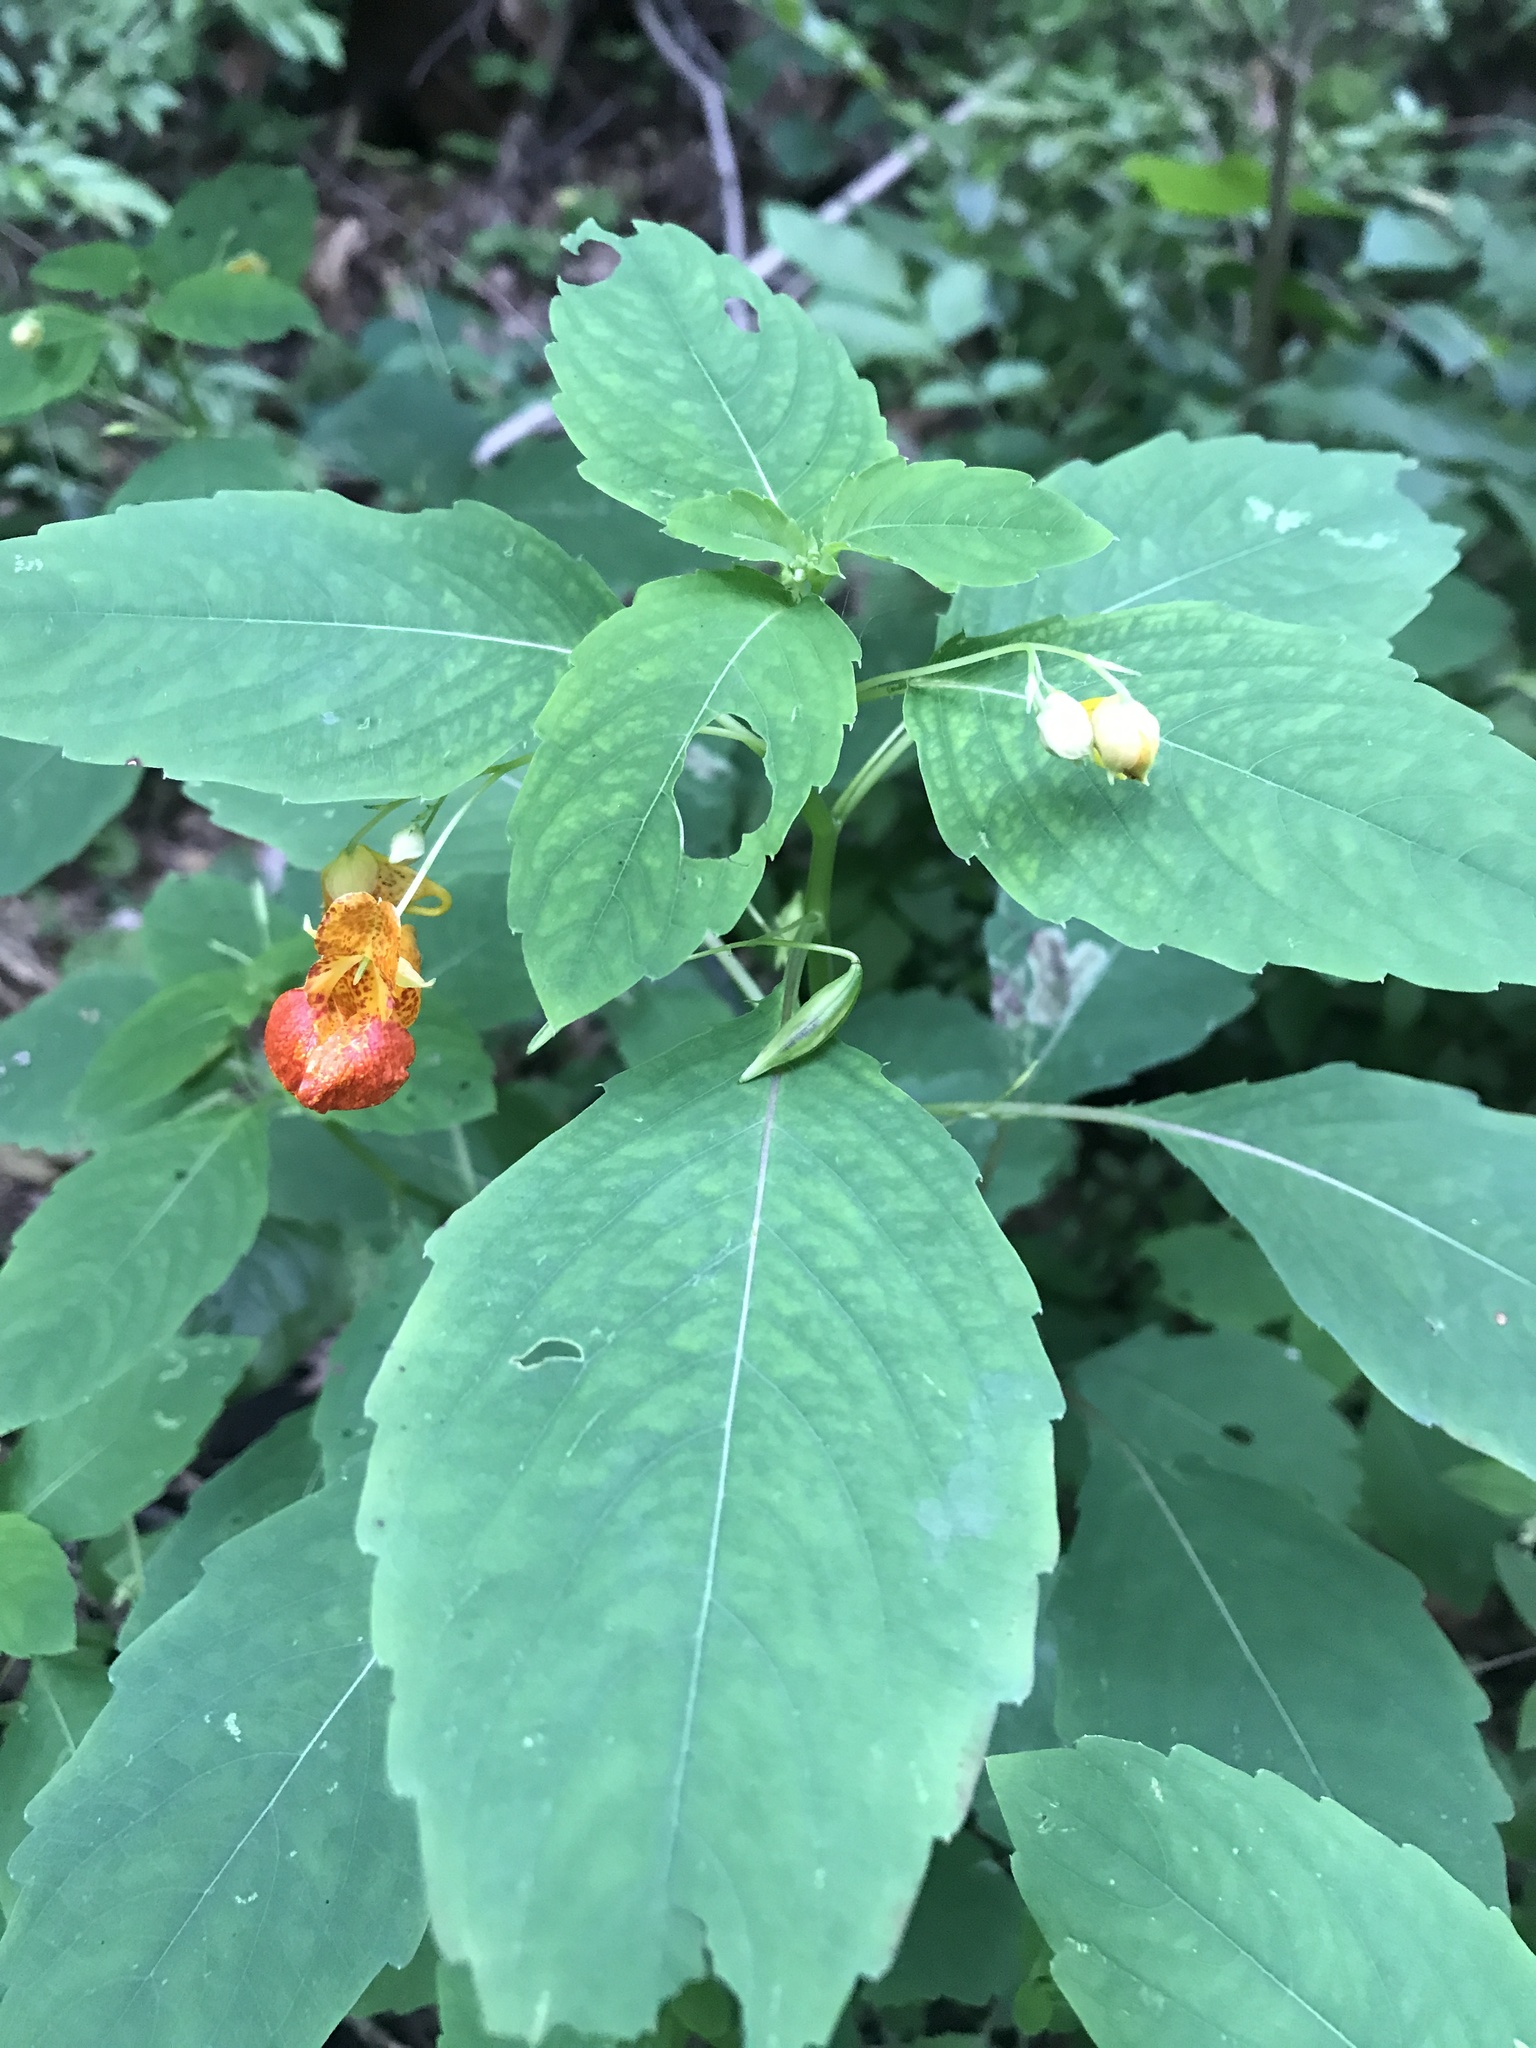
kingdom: Plantae
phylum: Tracheophyta
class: Magnoliopsida
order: Ericales
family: Balsaminaceae
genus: Impatiens
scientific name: Impatiens capensis
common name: Orange balsam
